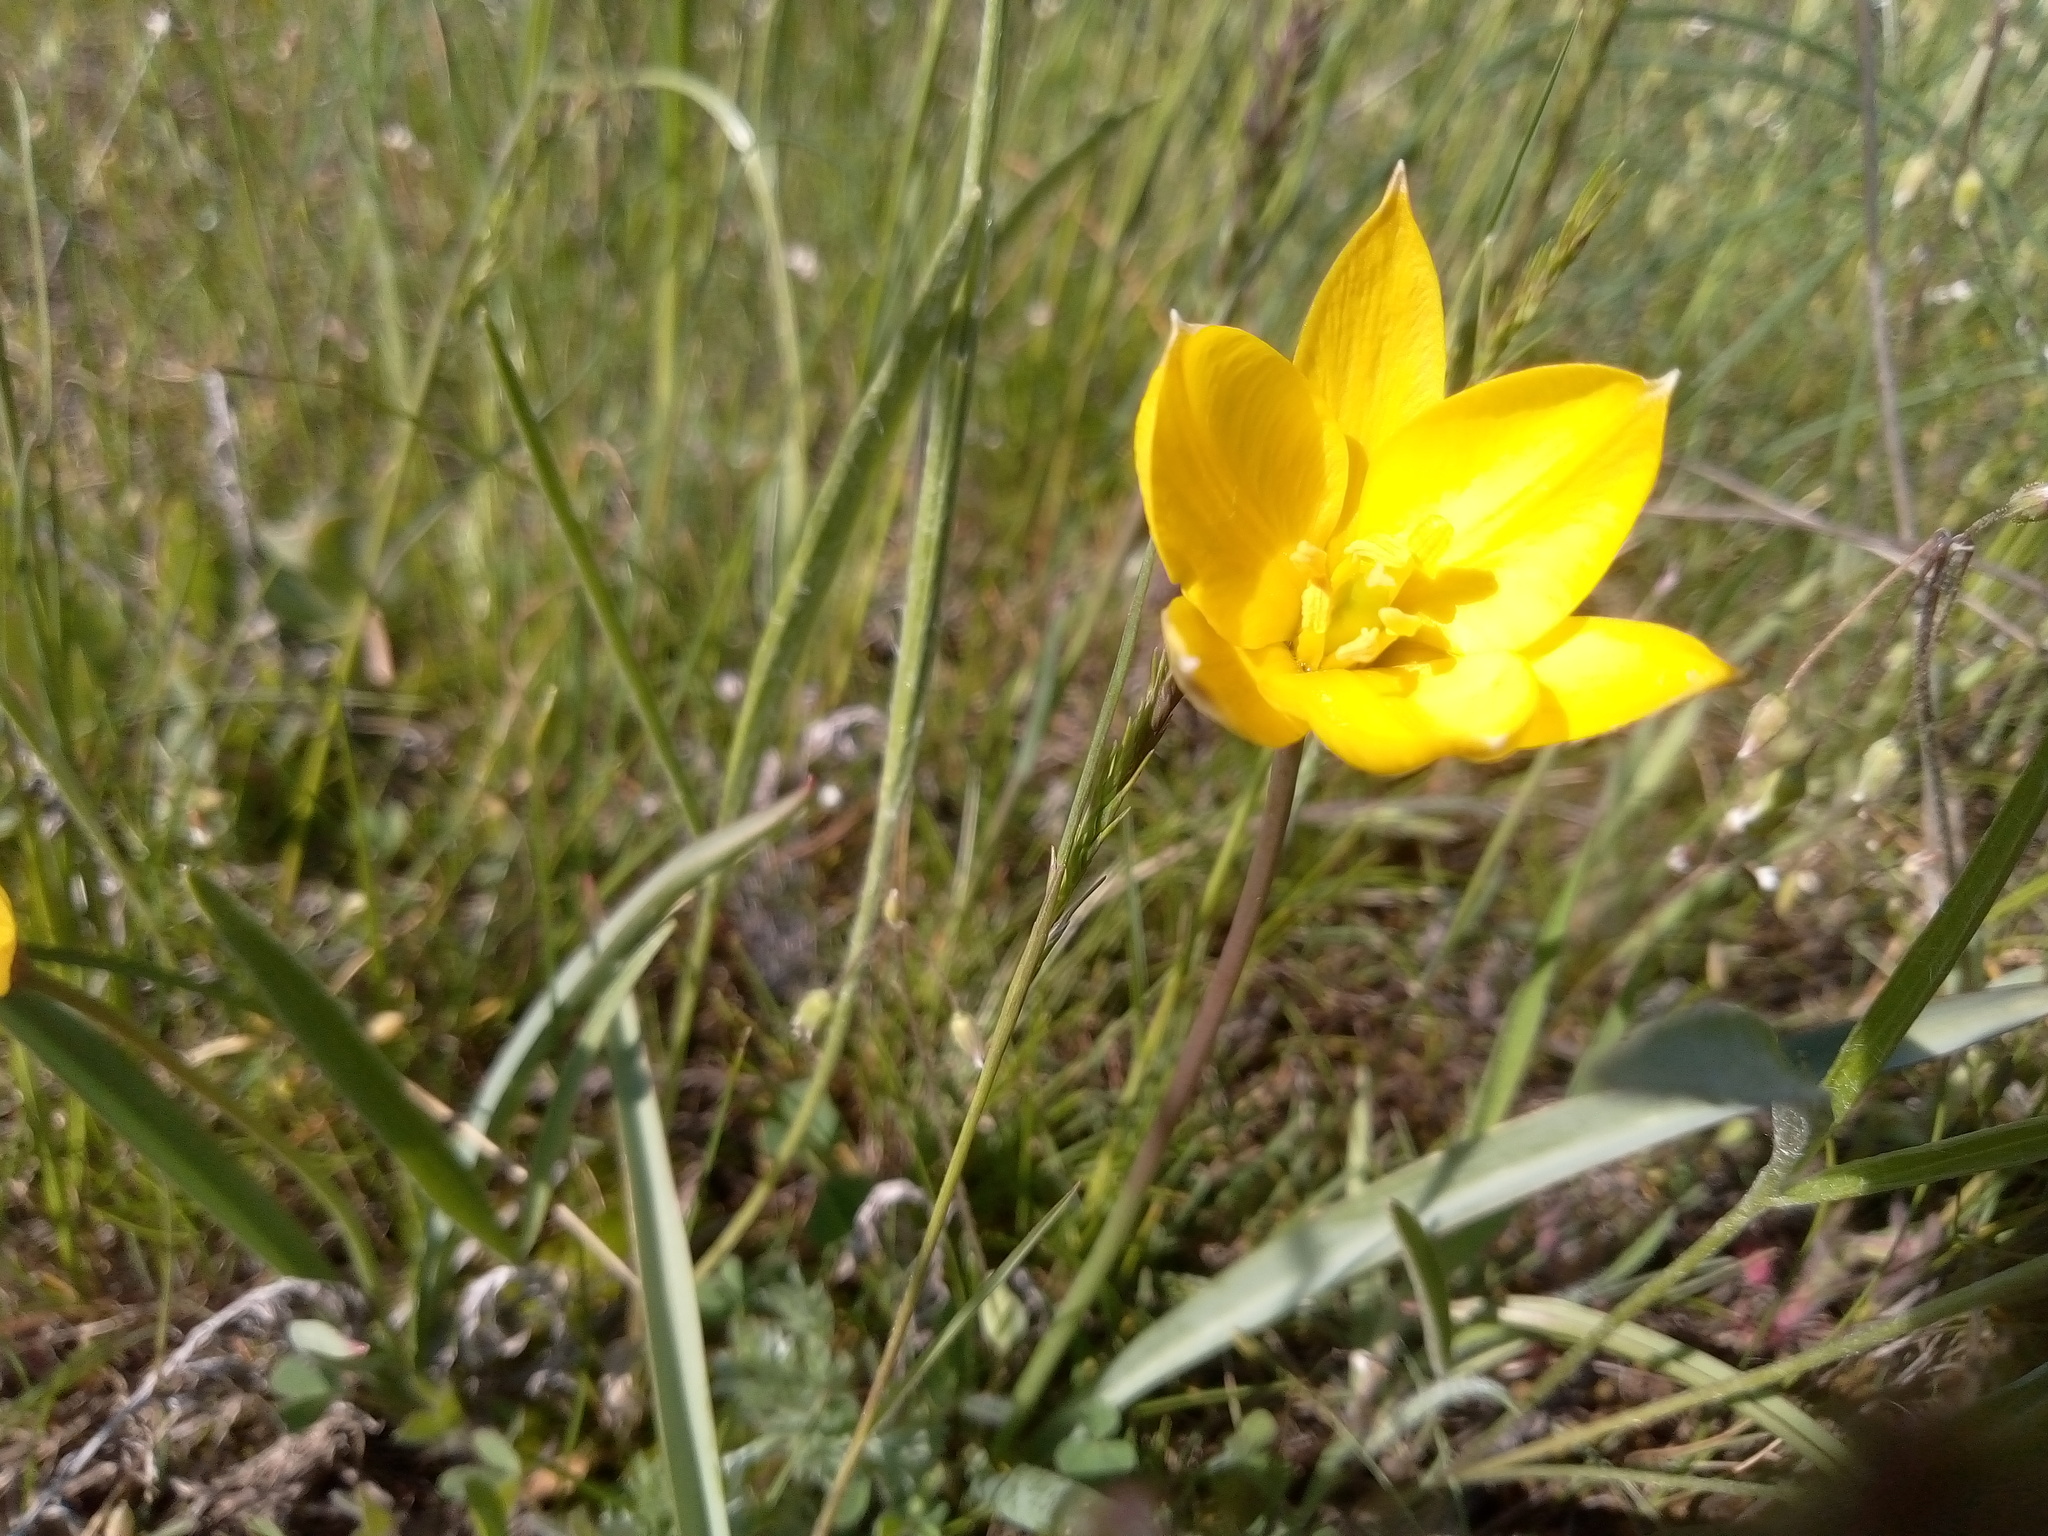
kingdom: Plantae
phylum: Tracheophyta
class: Liliopsida
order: Liliales
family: Liliaceae
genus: Tulipa
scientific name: Tulipa sylvestris
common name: Wild tulip
